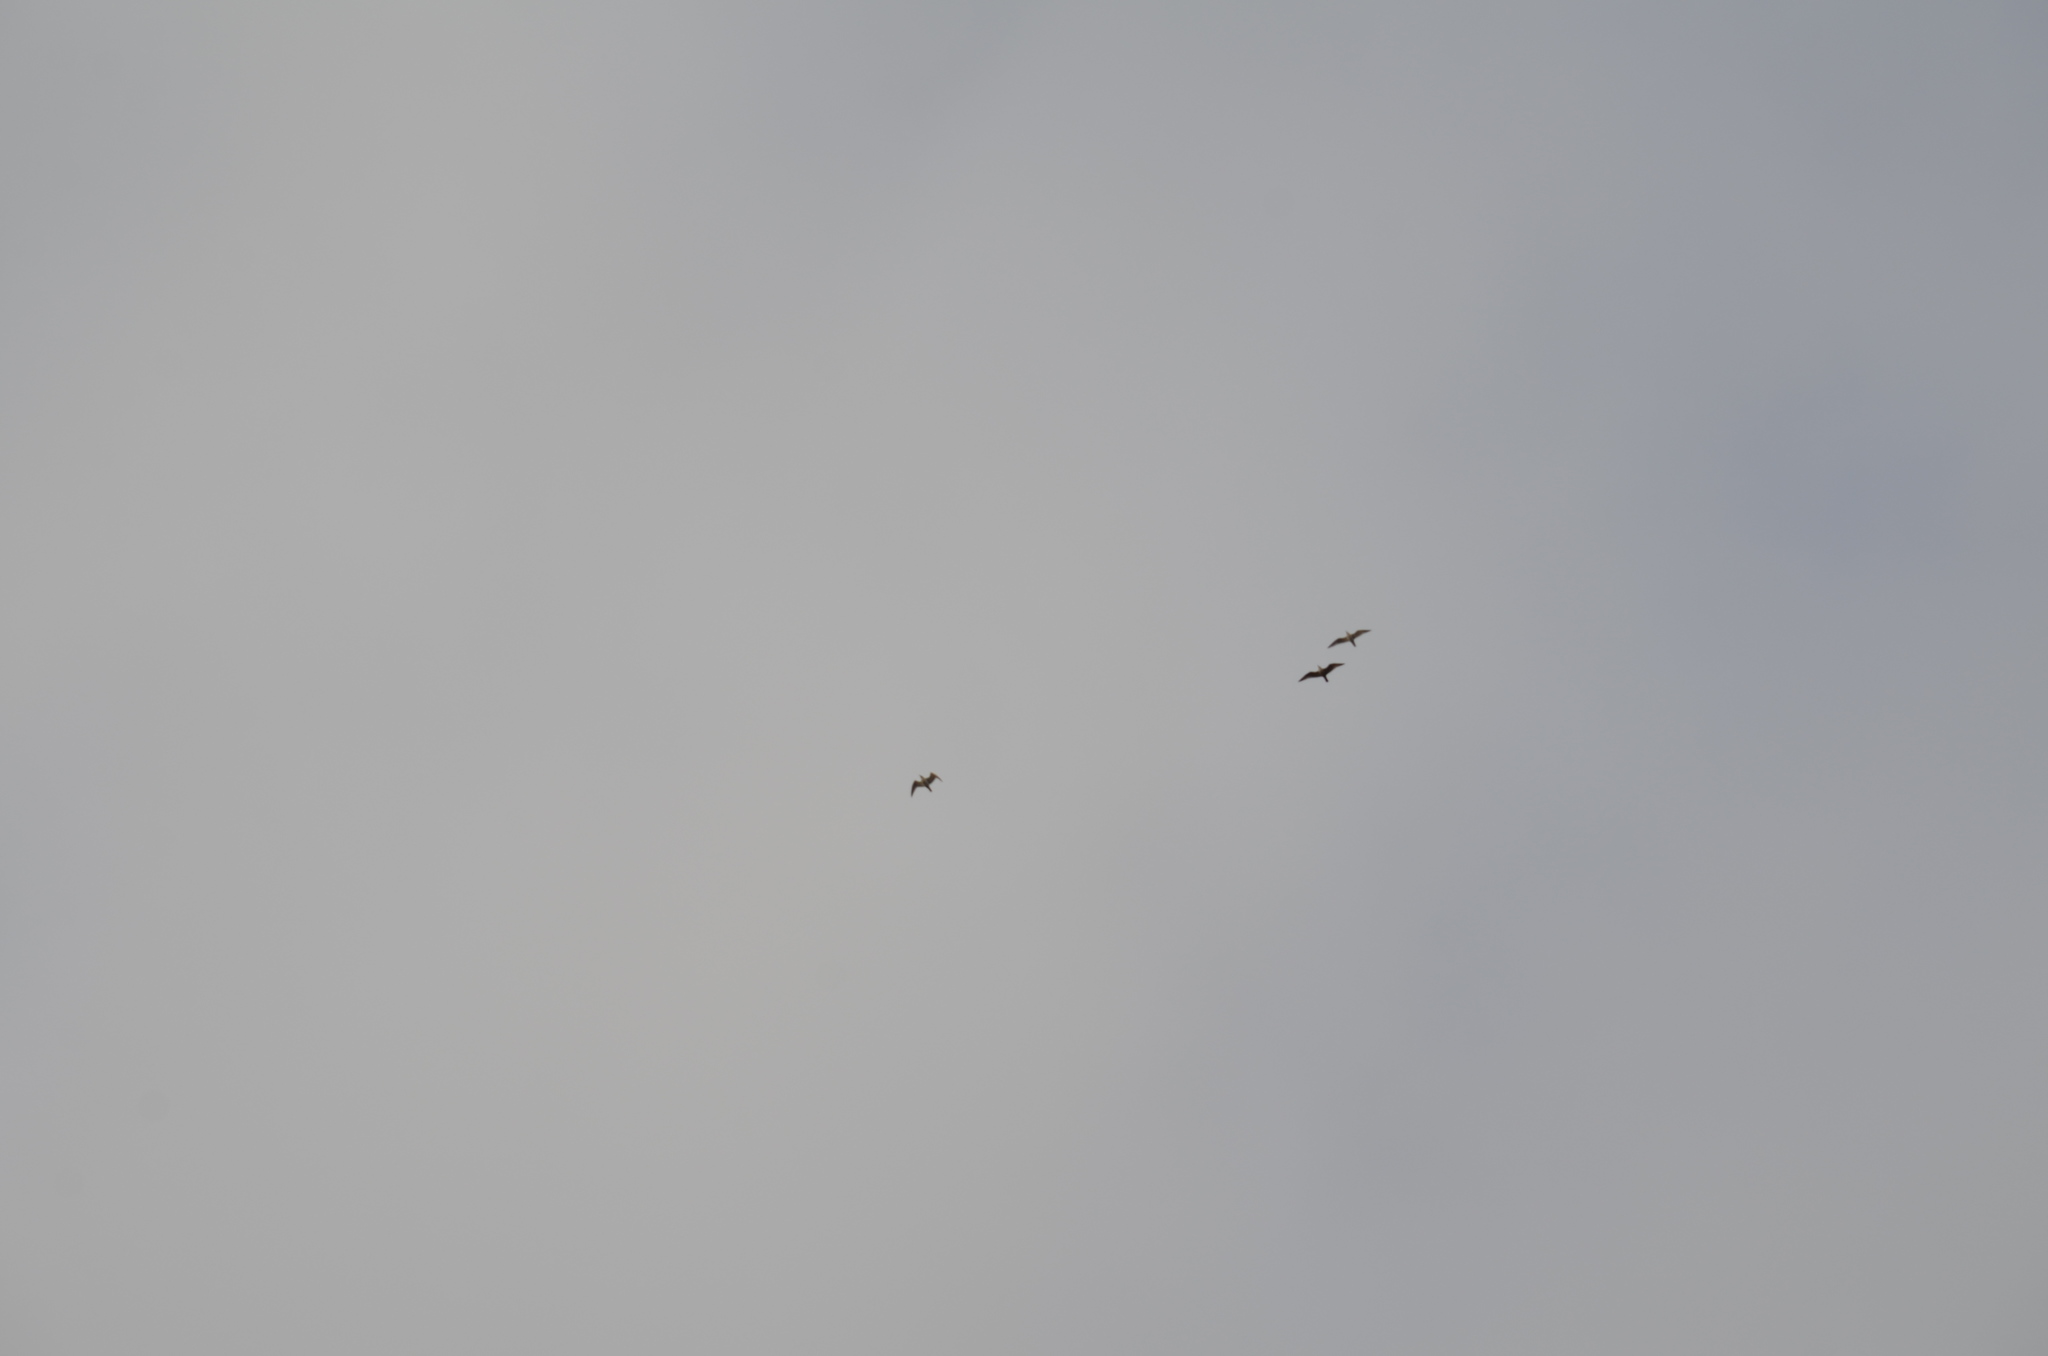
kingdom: Animalia
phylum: Chordata
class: Aves
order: Charadriiformes
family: Laridae
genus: Larus
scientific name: Larus
